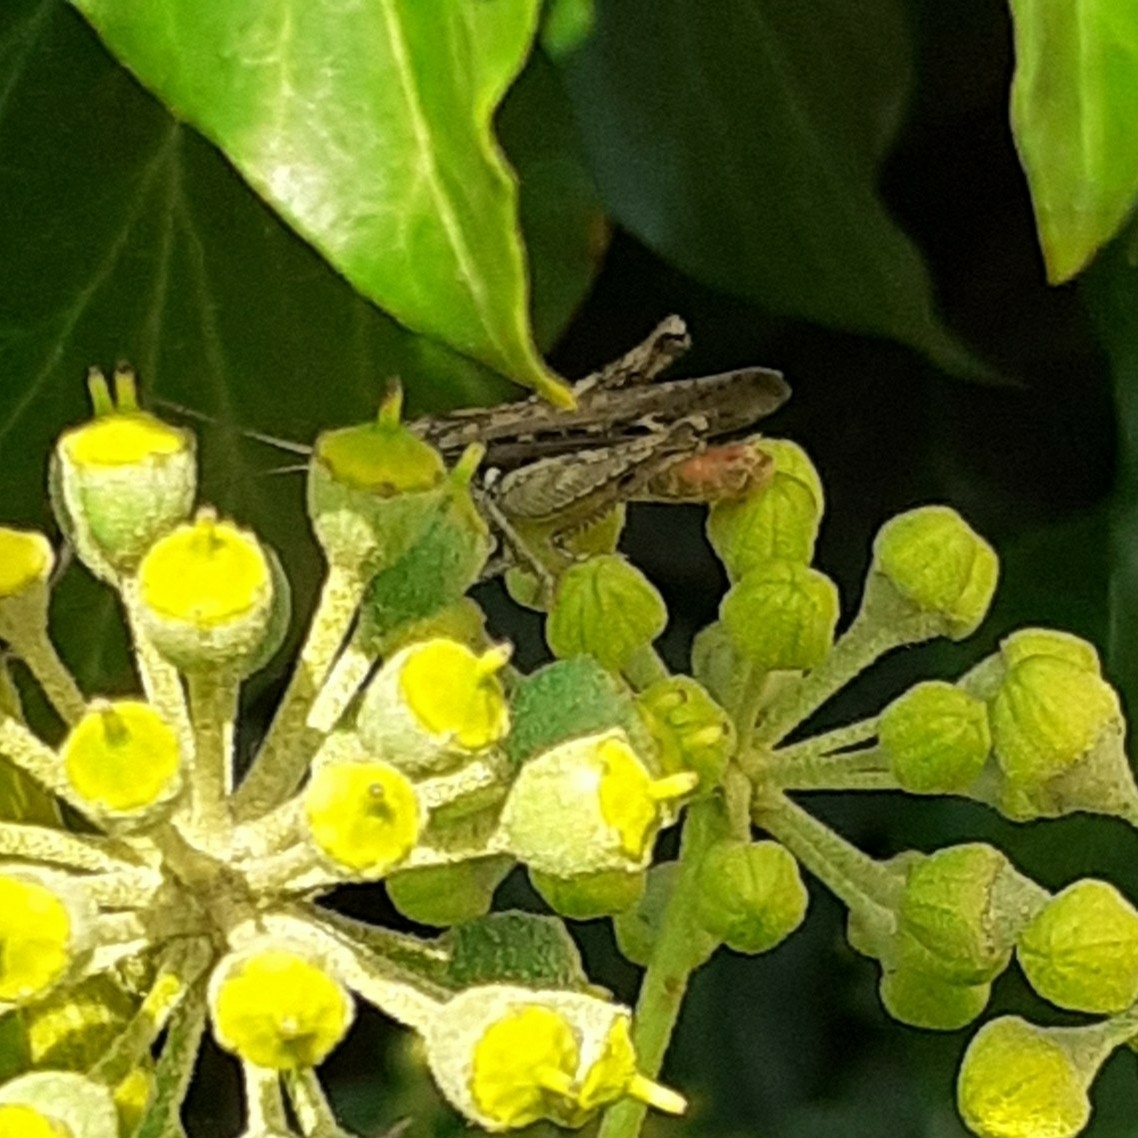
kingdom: Animalia
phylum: Arthropoda
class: Insecta
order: Orthoptera
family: Acrididae
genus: Chorthippus
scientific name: Chorthippus brunneus
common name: Field grasshopper
